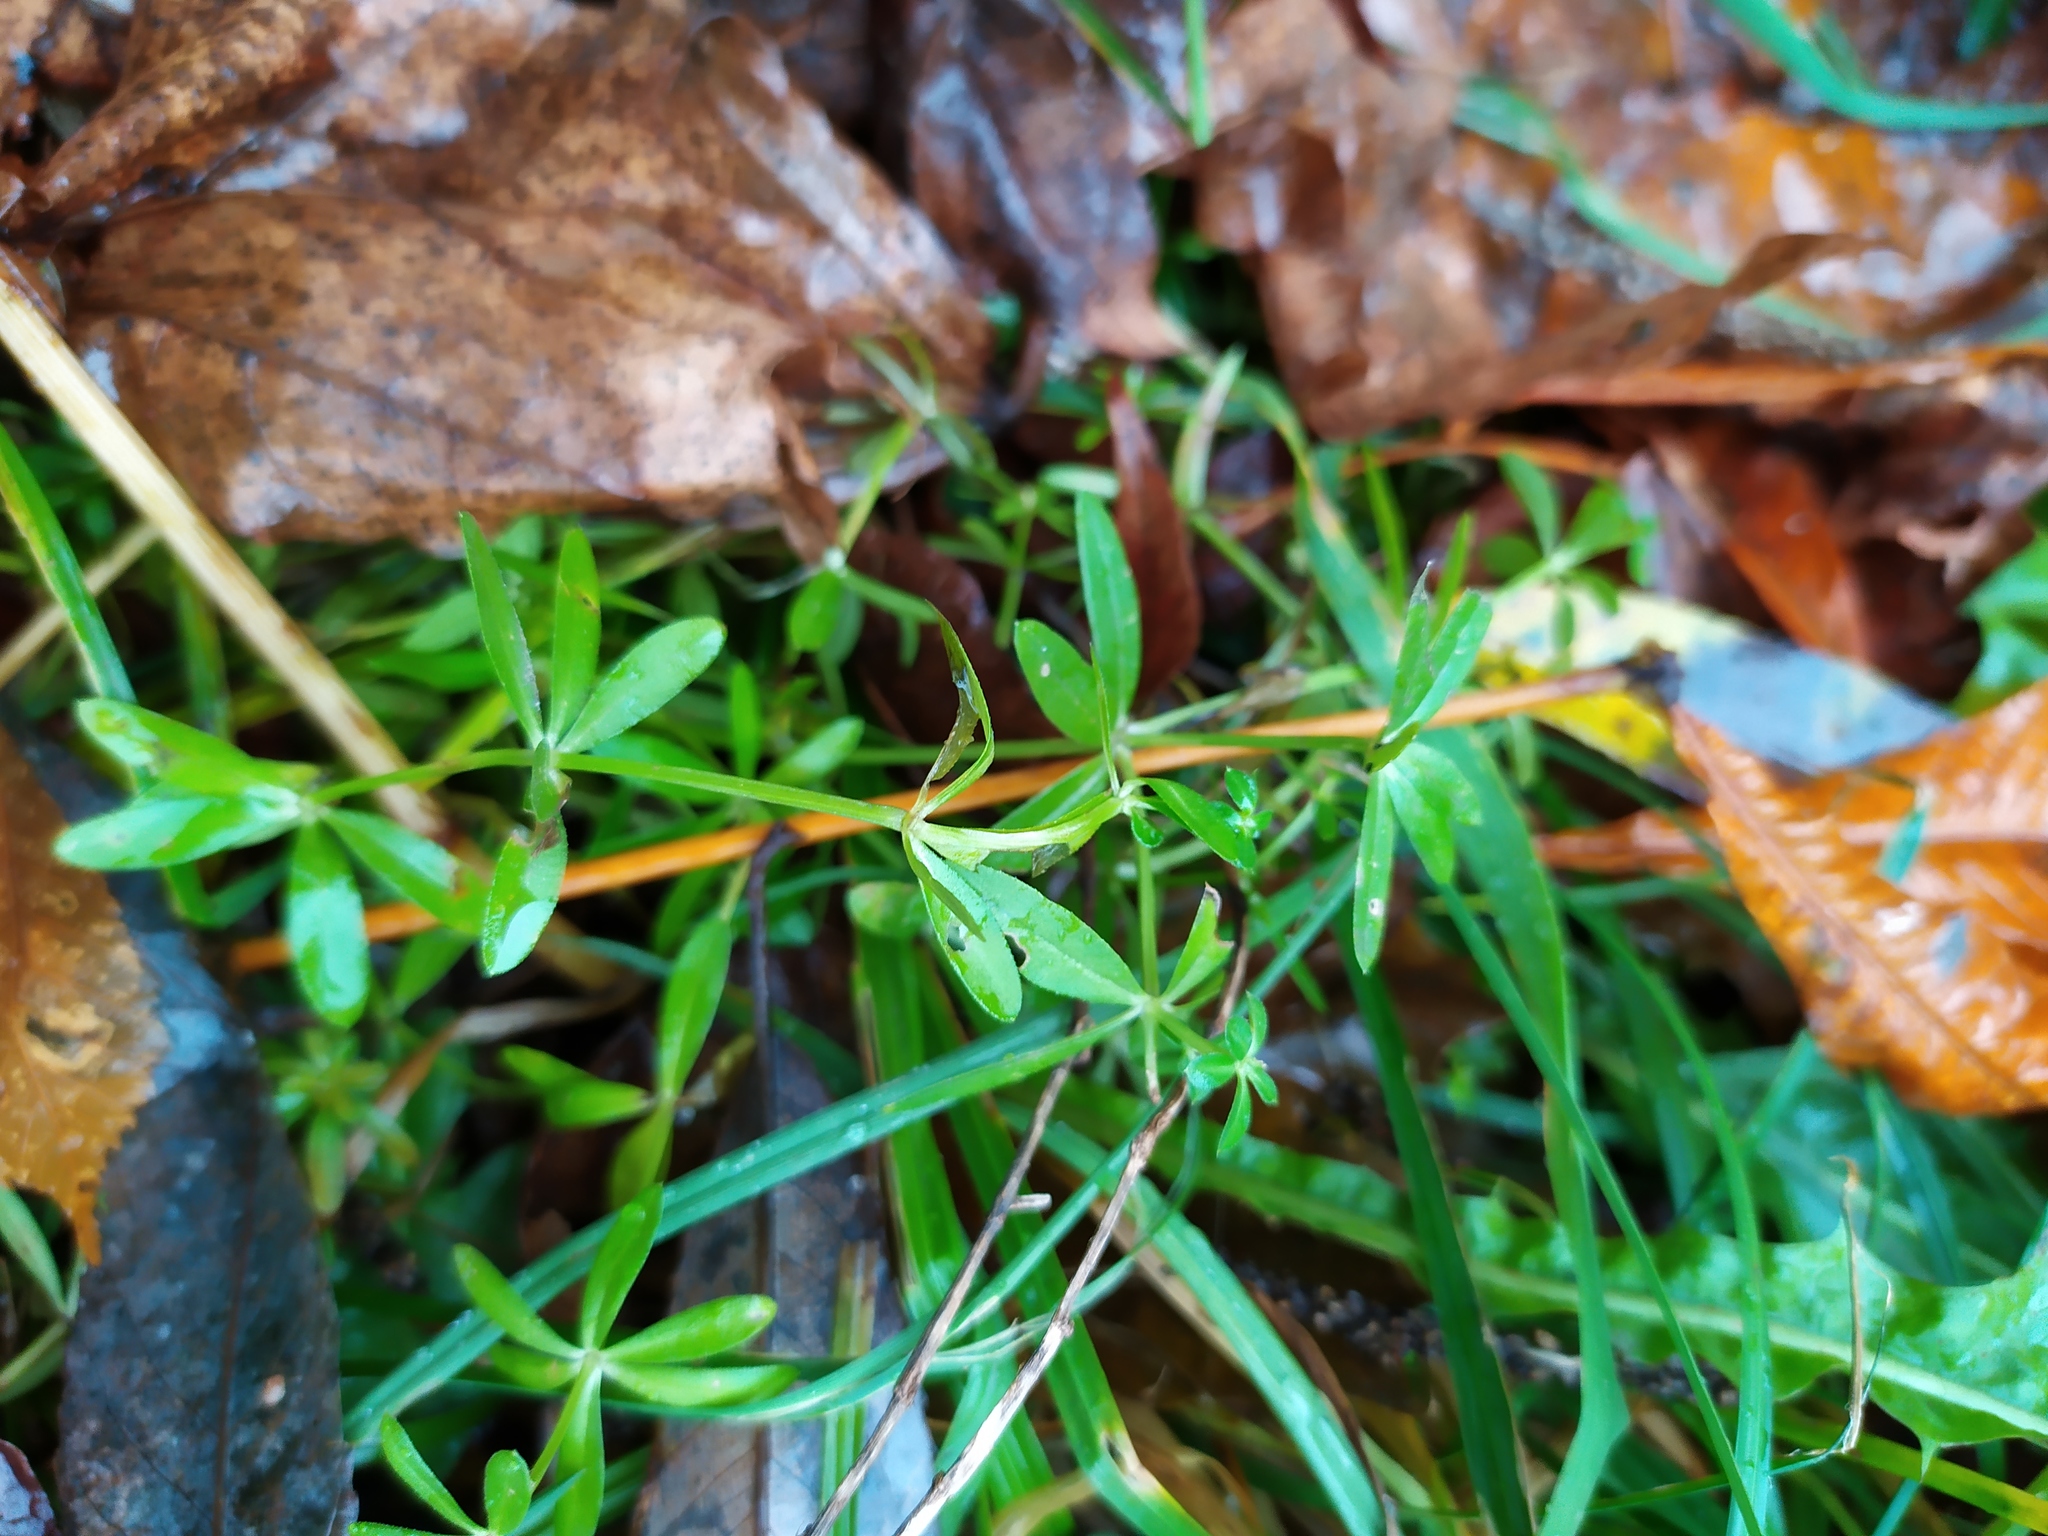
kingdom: Plantae
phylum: Tracheophyta
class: Magnoliopsida
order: Gentianales
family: Rubiaceae
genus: Galium
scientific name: Galium mollugo
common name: Hedge bedstraw
